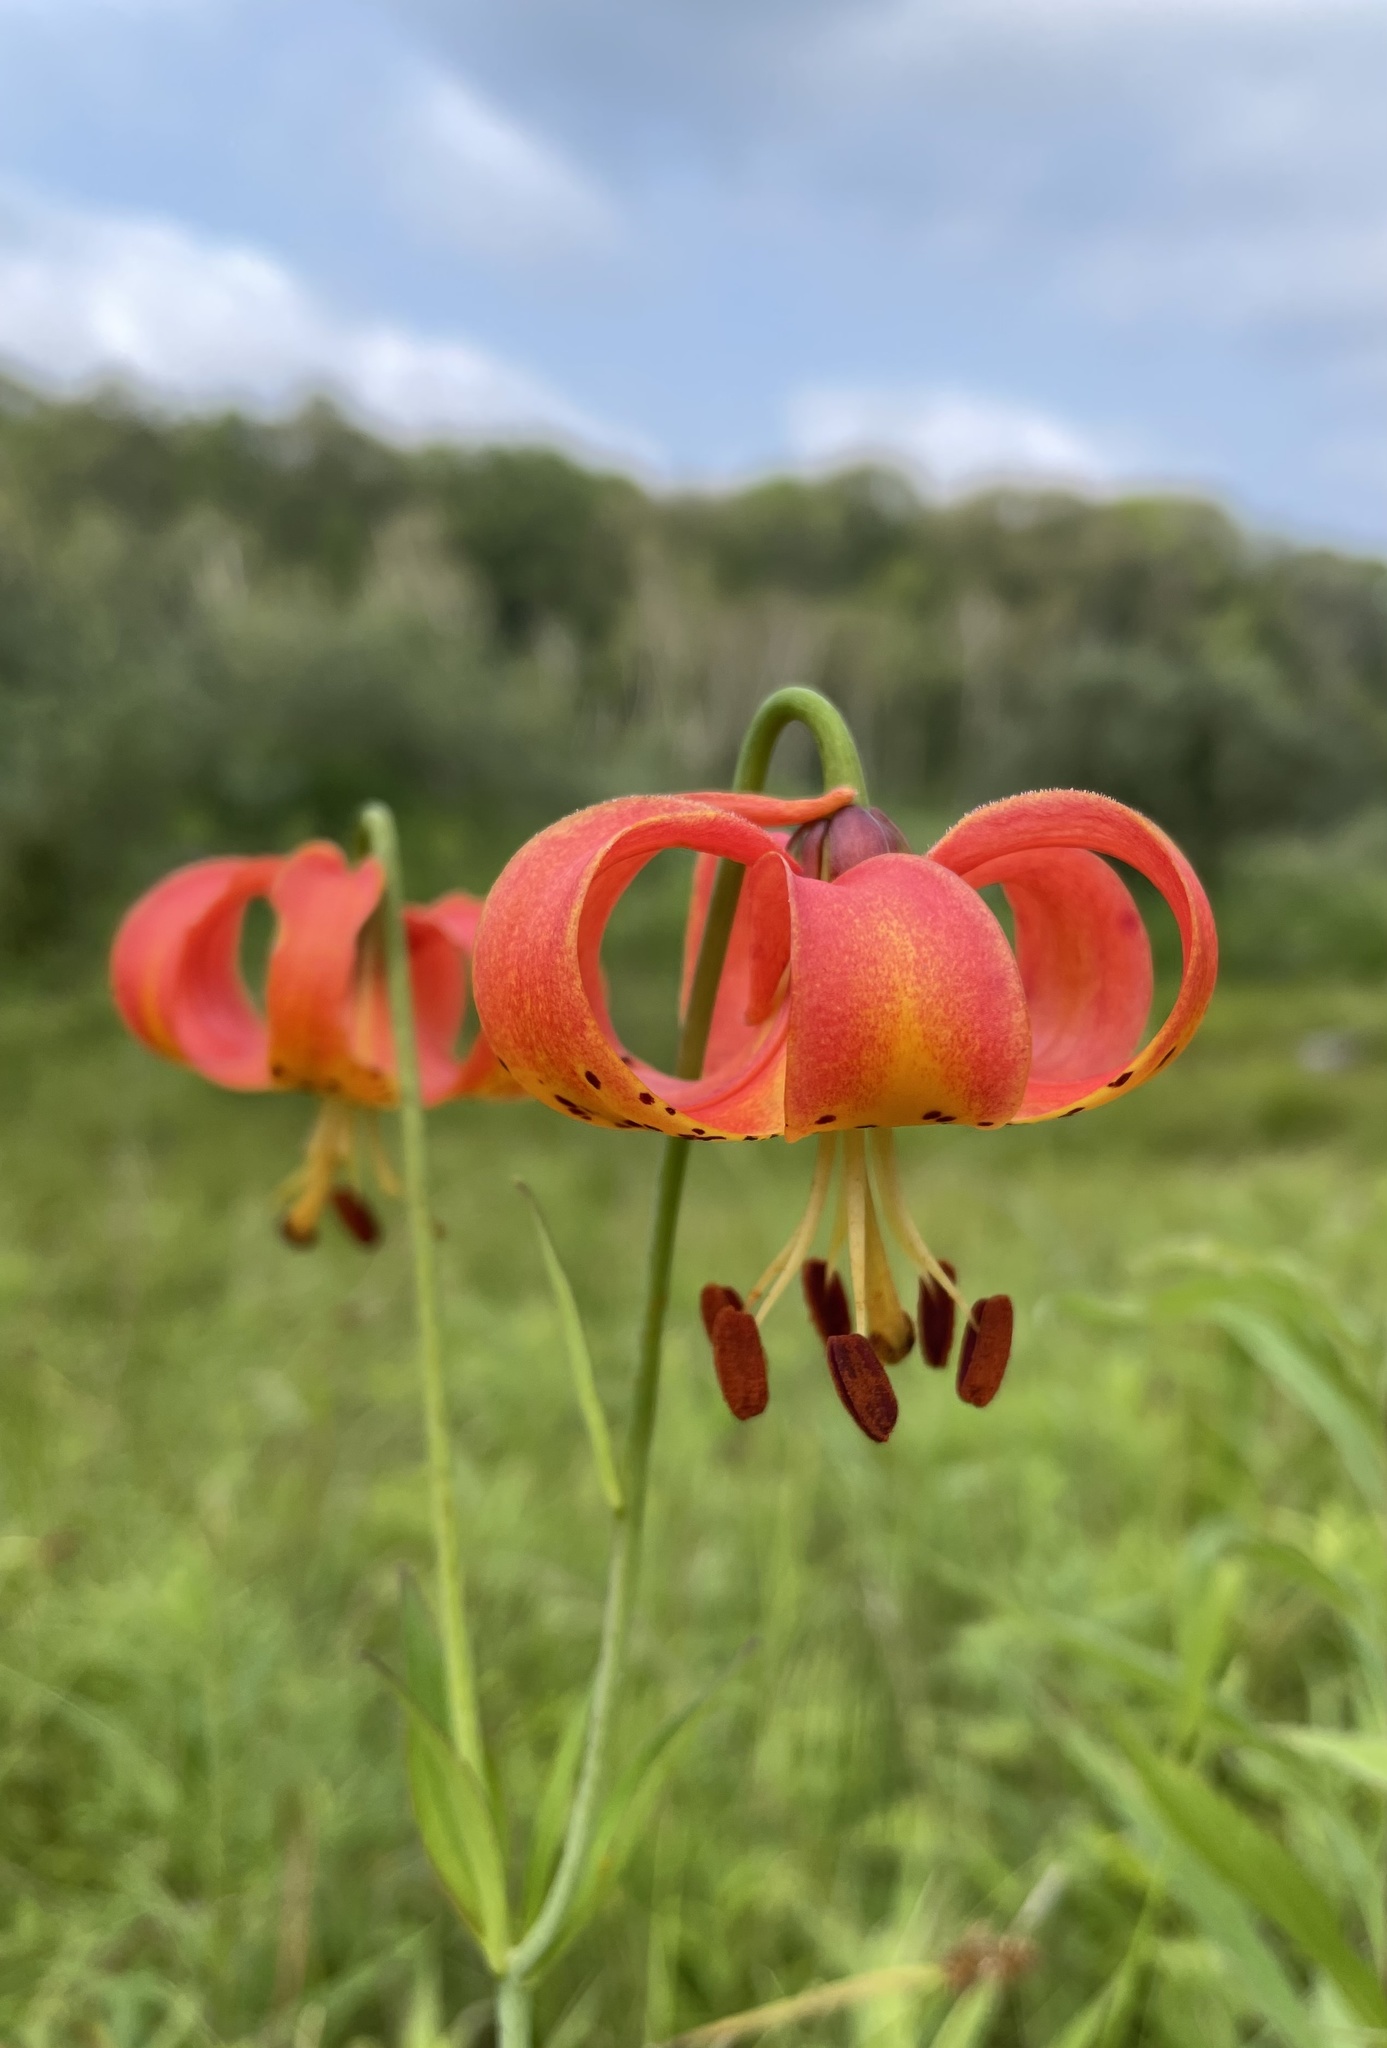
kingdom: Plantae
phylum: Tracheophyta
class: Liliopsida
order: Liliales
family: Liliaceae
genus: Lilium
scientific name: Lilium michiganense
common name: Michigan lily
